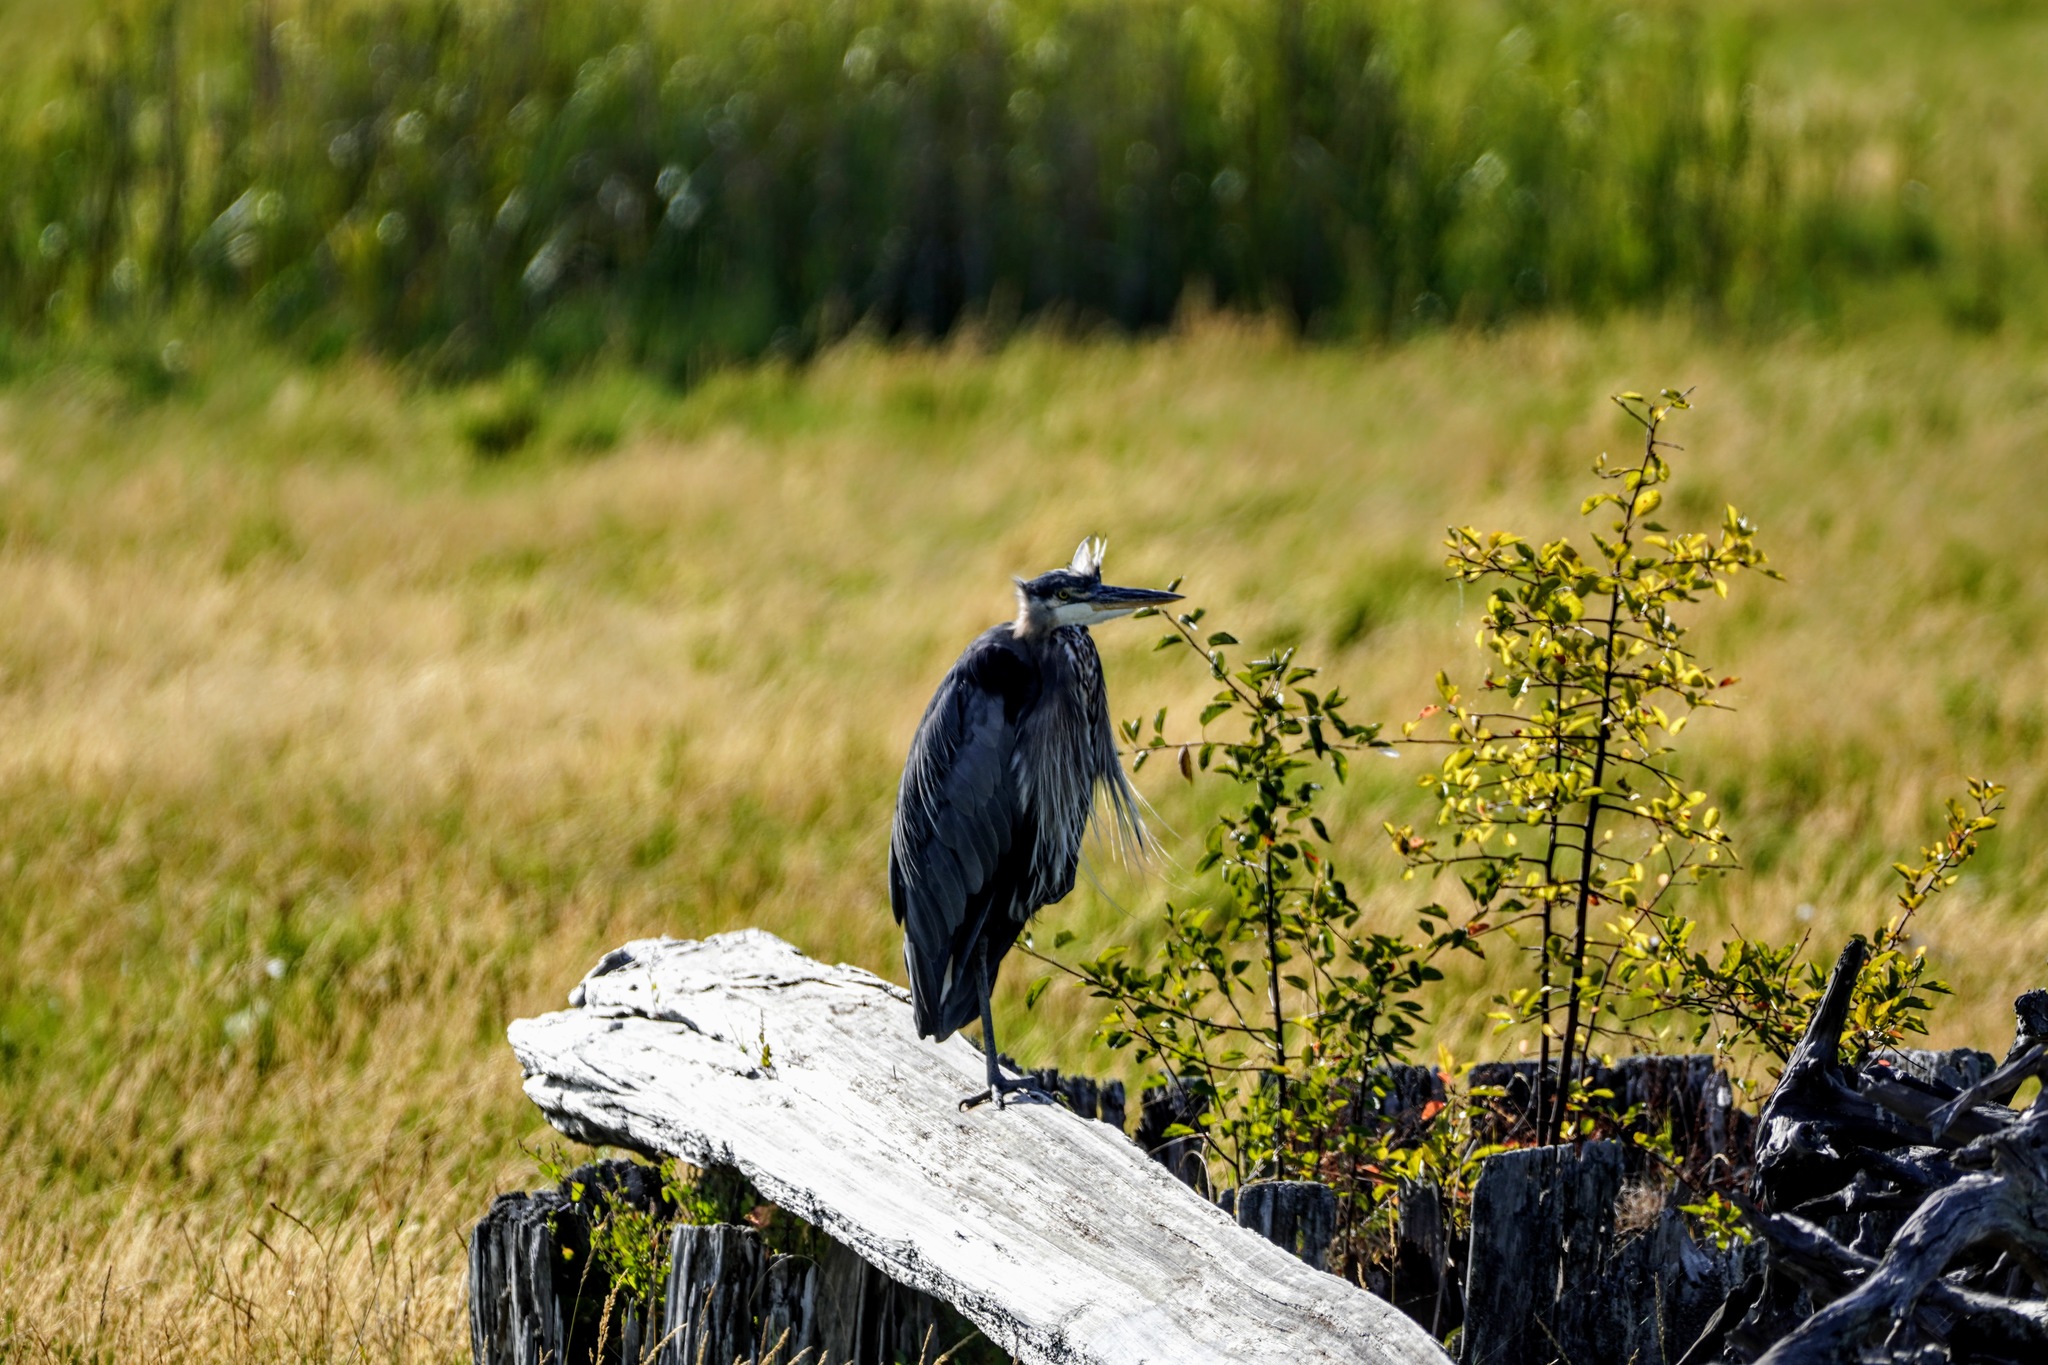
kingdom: Animalia
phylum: Chordata
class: Aves
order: Pelecaniformes
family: Ardeidae
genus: Ardea
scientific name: Ardea herodias
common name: Great blue heron
